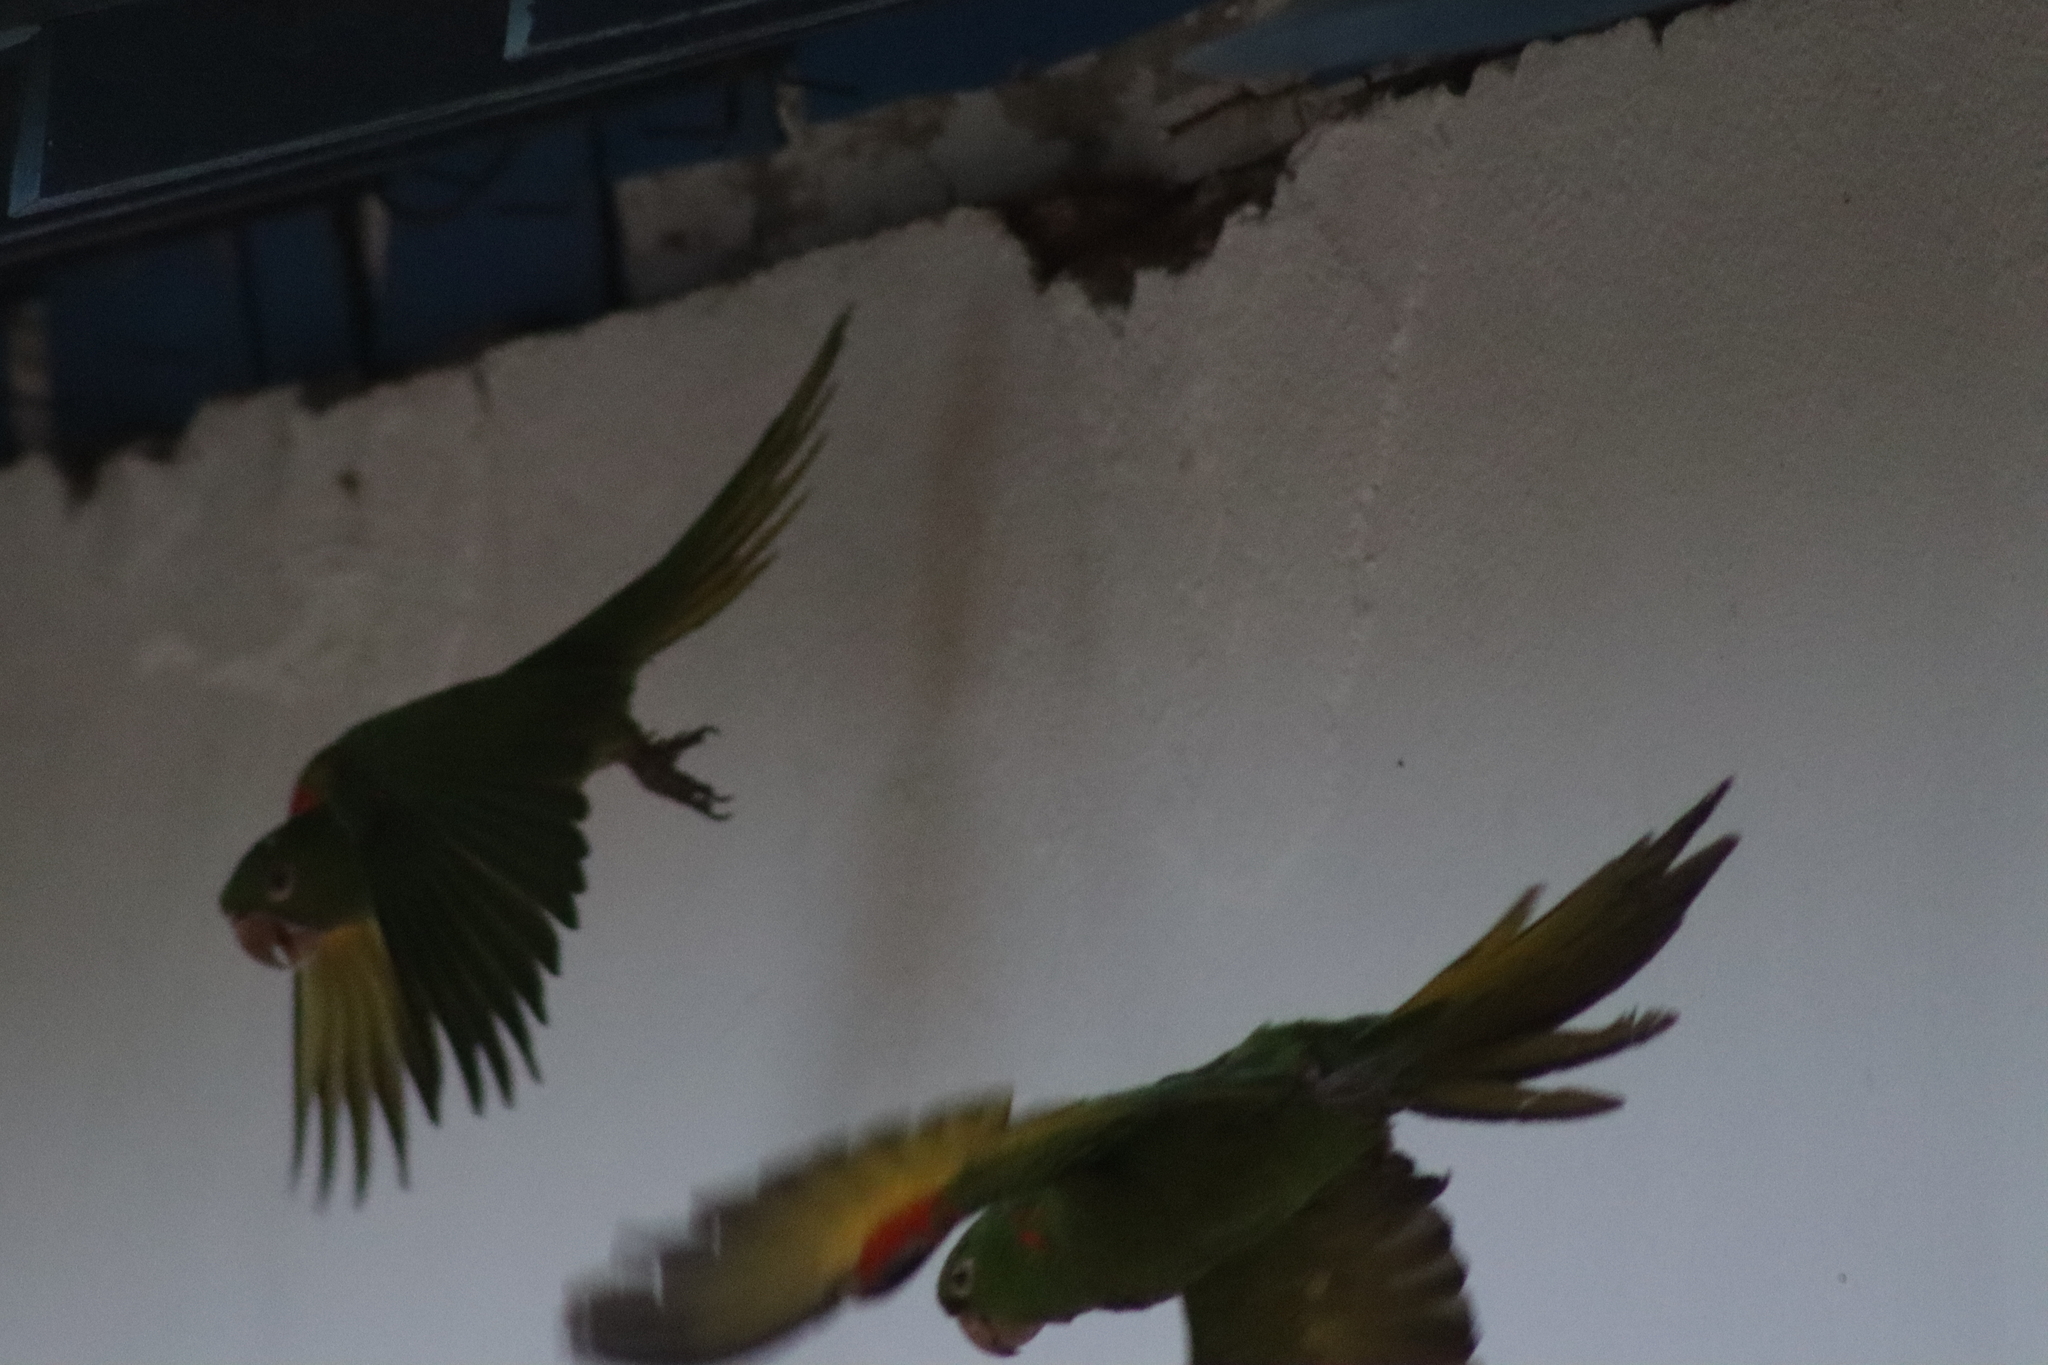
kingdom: Animalia
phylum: Chordata
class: Aves
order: Psittaciformes
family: Psittacidae
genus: Aratinga
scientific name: Aratinga leucophthalma
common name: White-eyed parakeet
